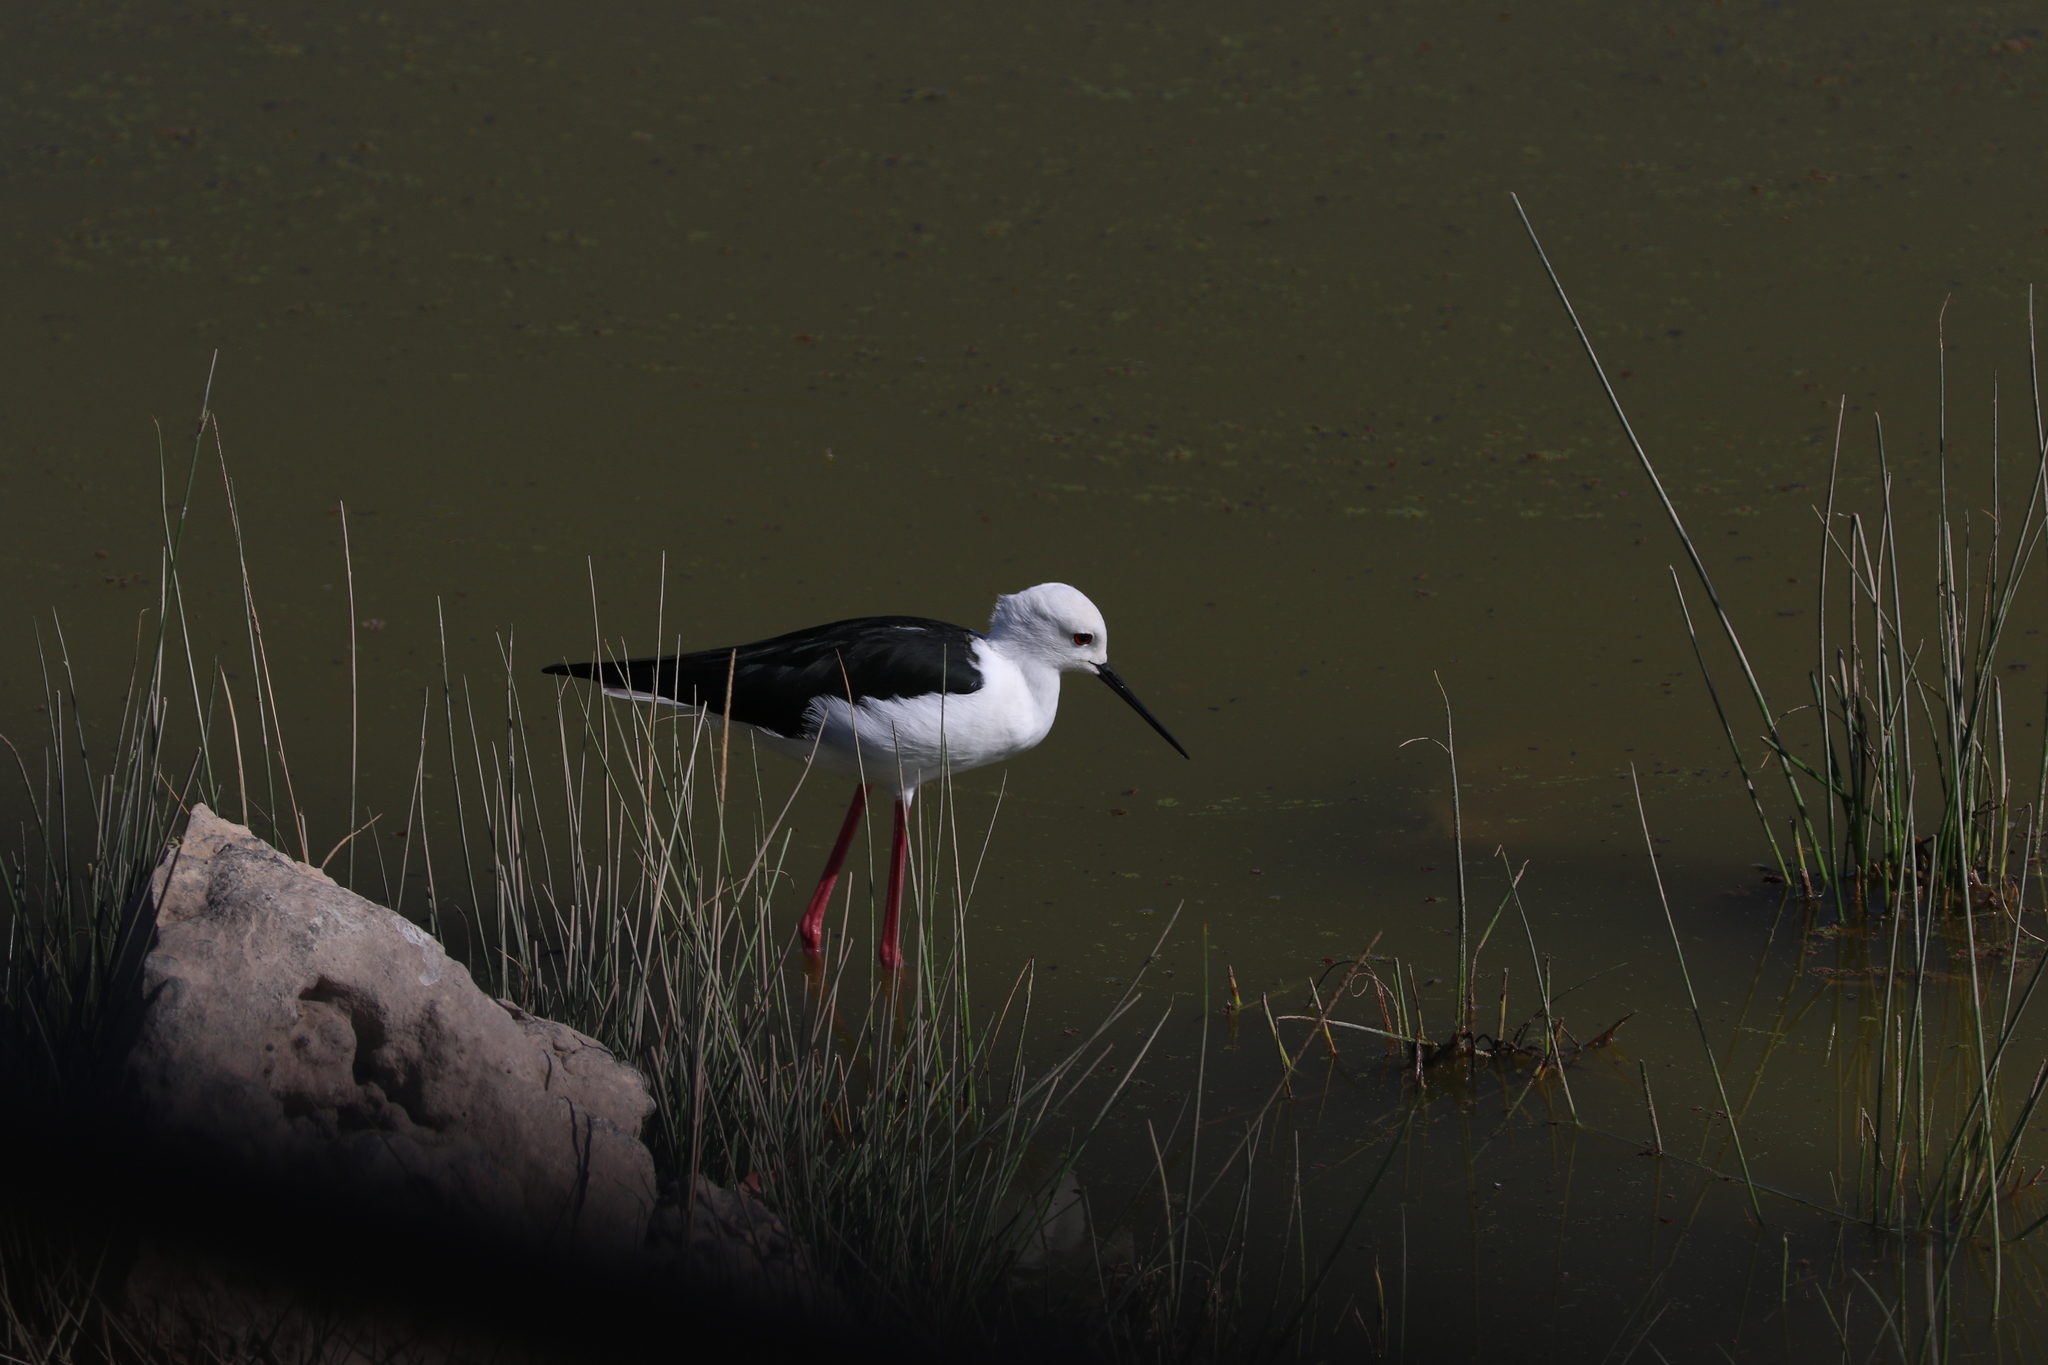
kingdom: Animalia
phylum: Chordata
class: Aves
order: Charadriiformes
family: Recurvirostridae
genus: Himantopus
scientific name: Himantopus himantopus
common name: Black-winged stilt
